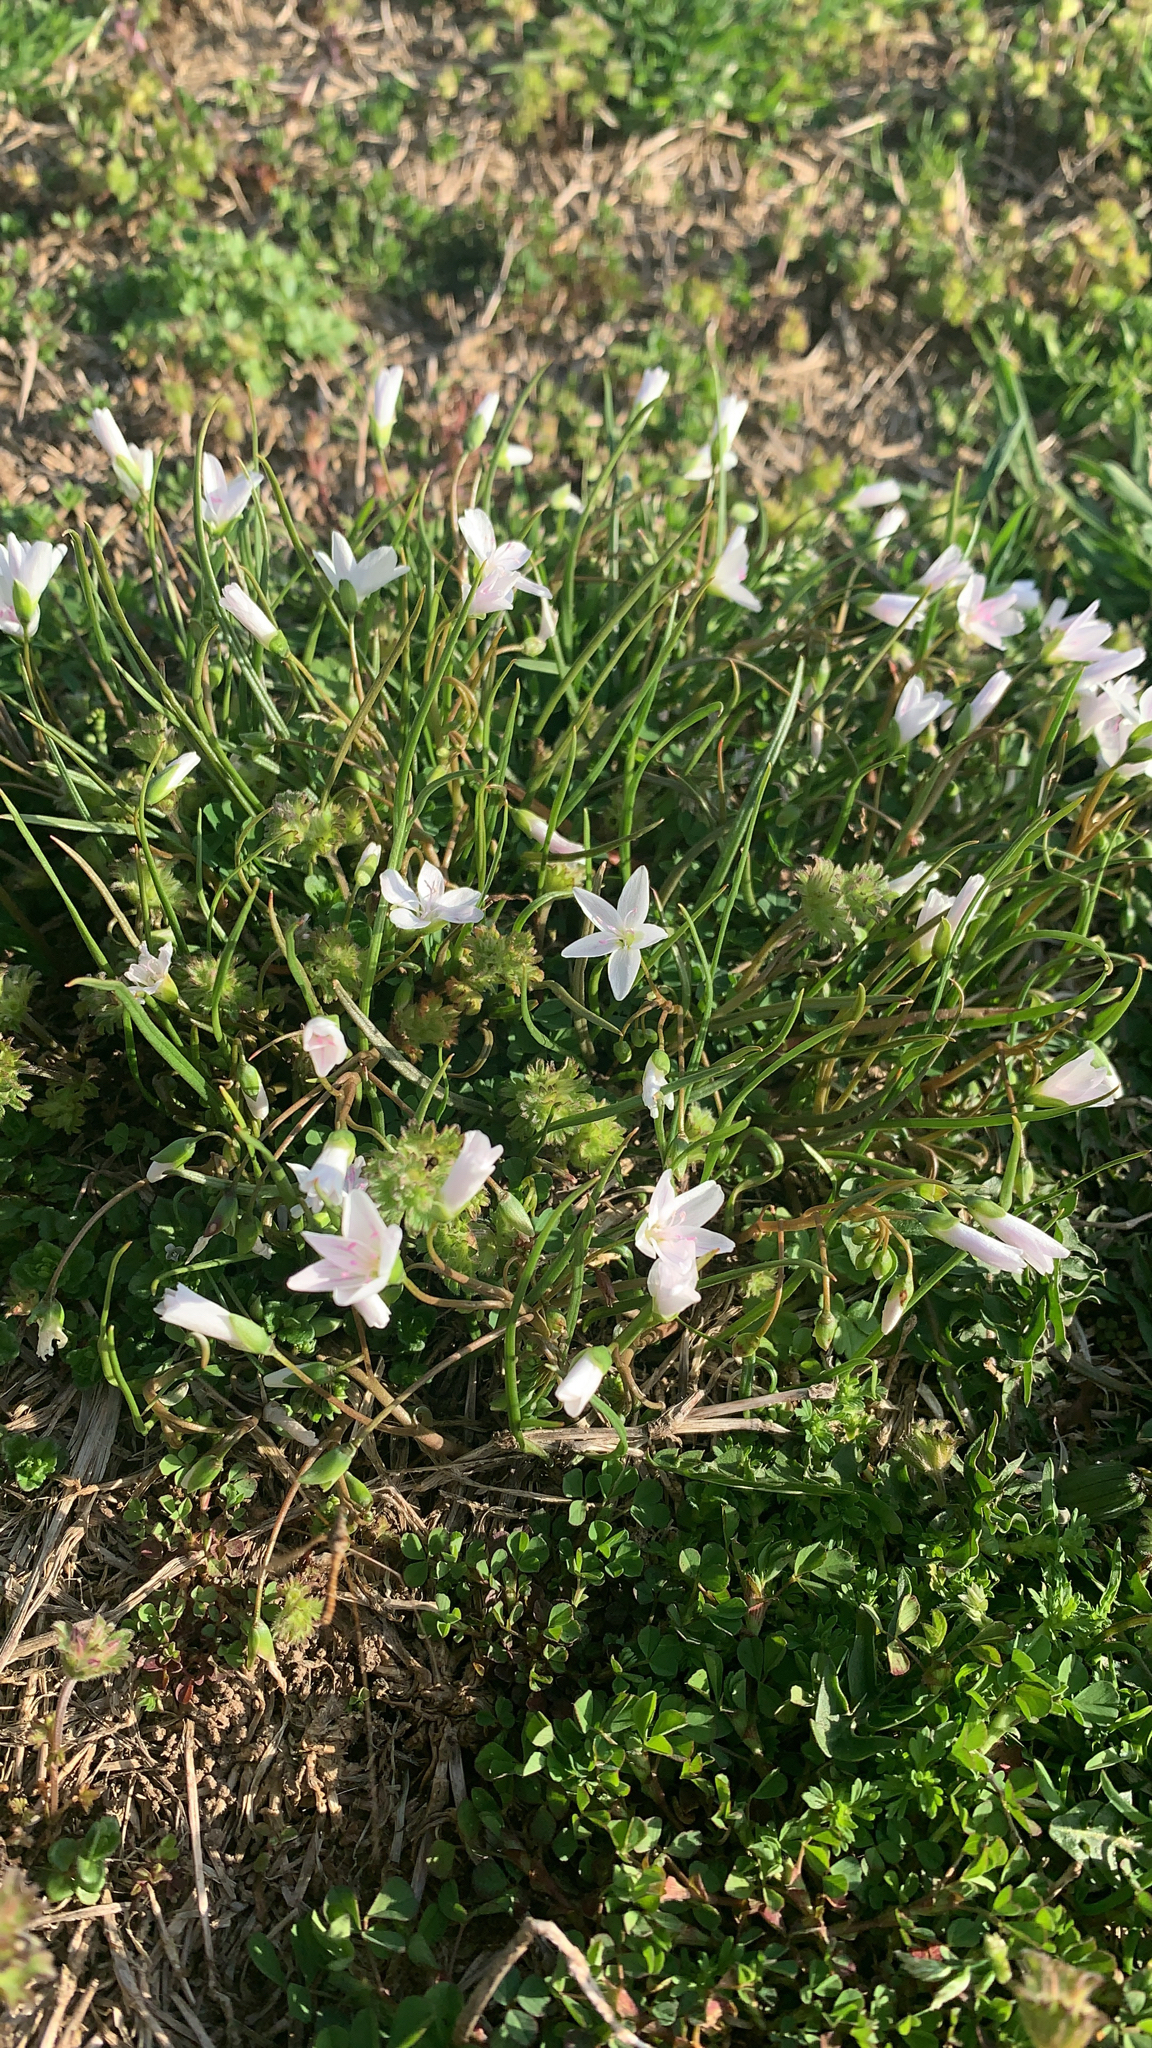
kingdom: Plantae
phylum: Tracheophyta
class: Magnoliopsida
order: Caryophyllales
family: Montiaceae
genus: Claytonia
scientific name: Claytonia virginica
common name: Virginia springbeauty
